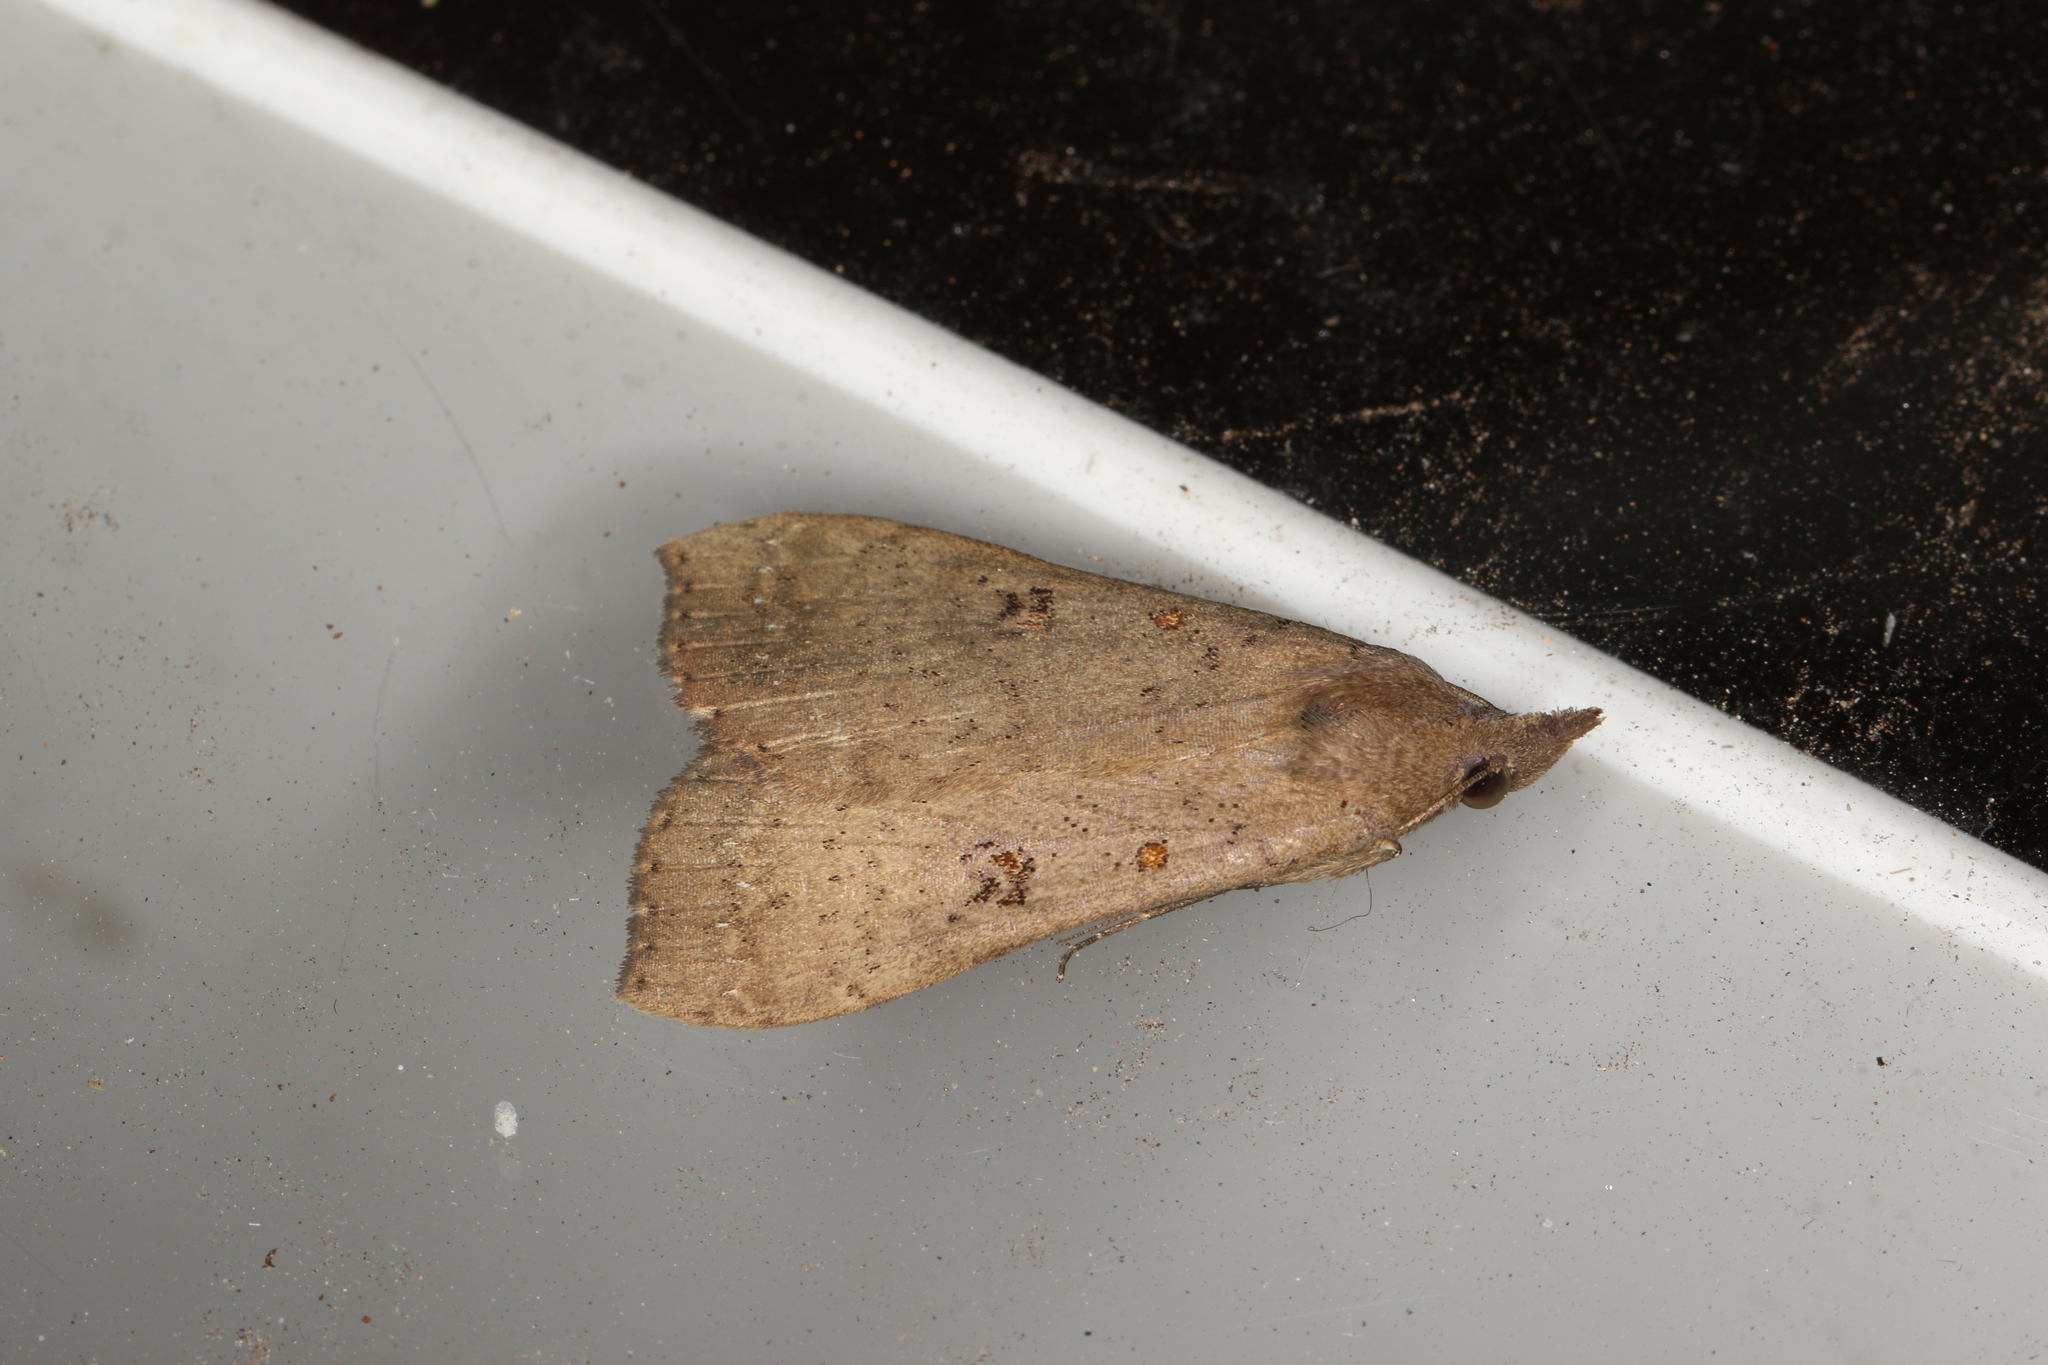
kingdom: Animalia
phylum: Arthropoda
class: Insecta
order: Lepidoptera
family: Erebidae
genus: Rhapsa
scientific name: Rhapsa suscitatalis
